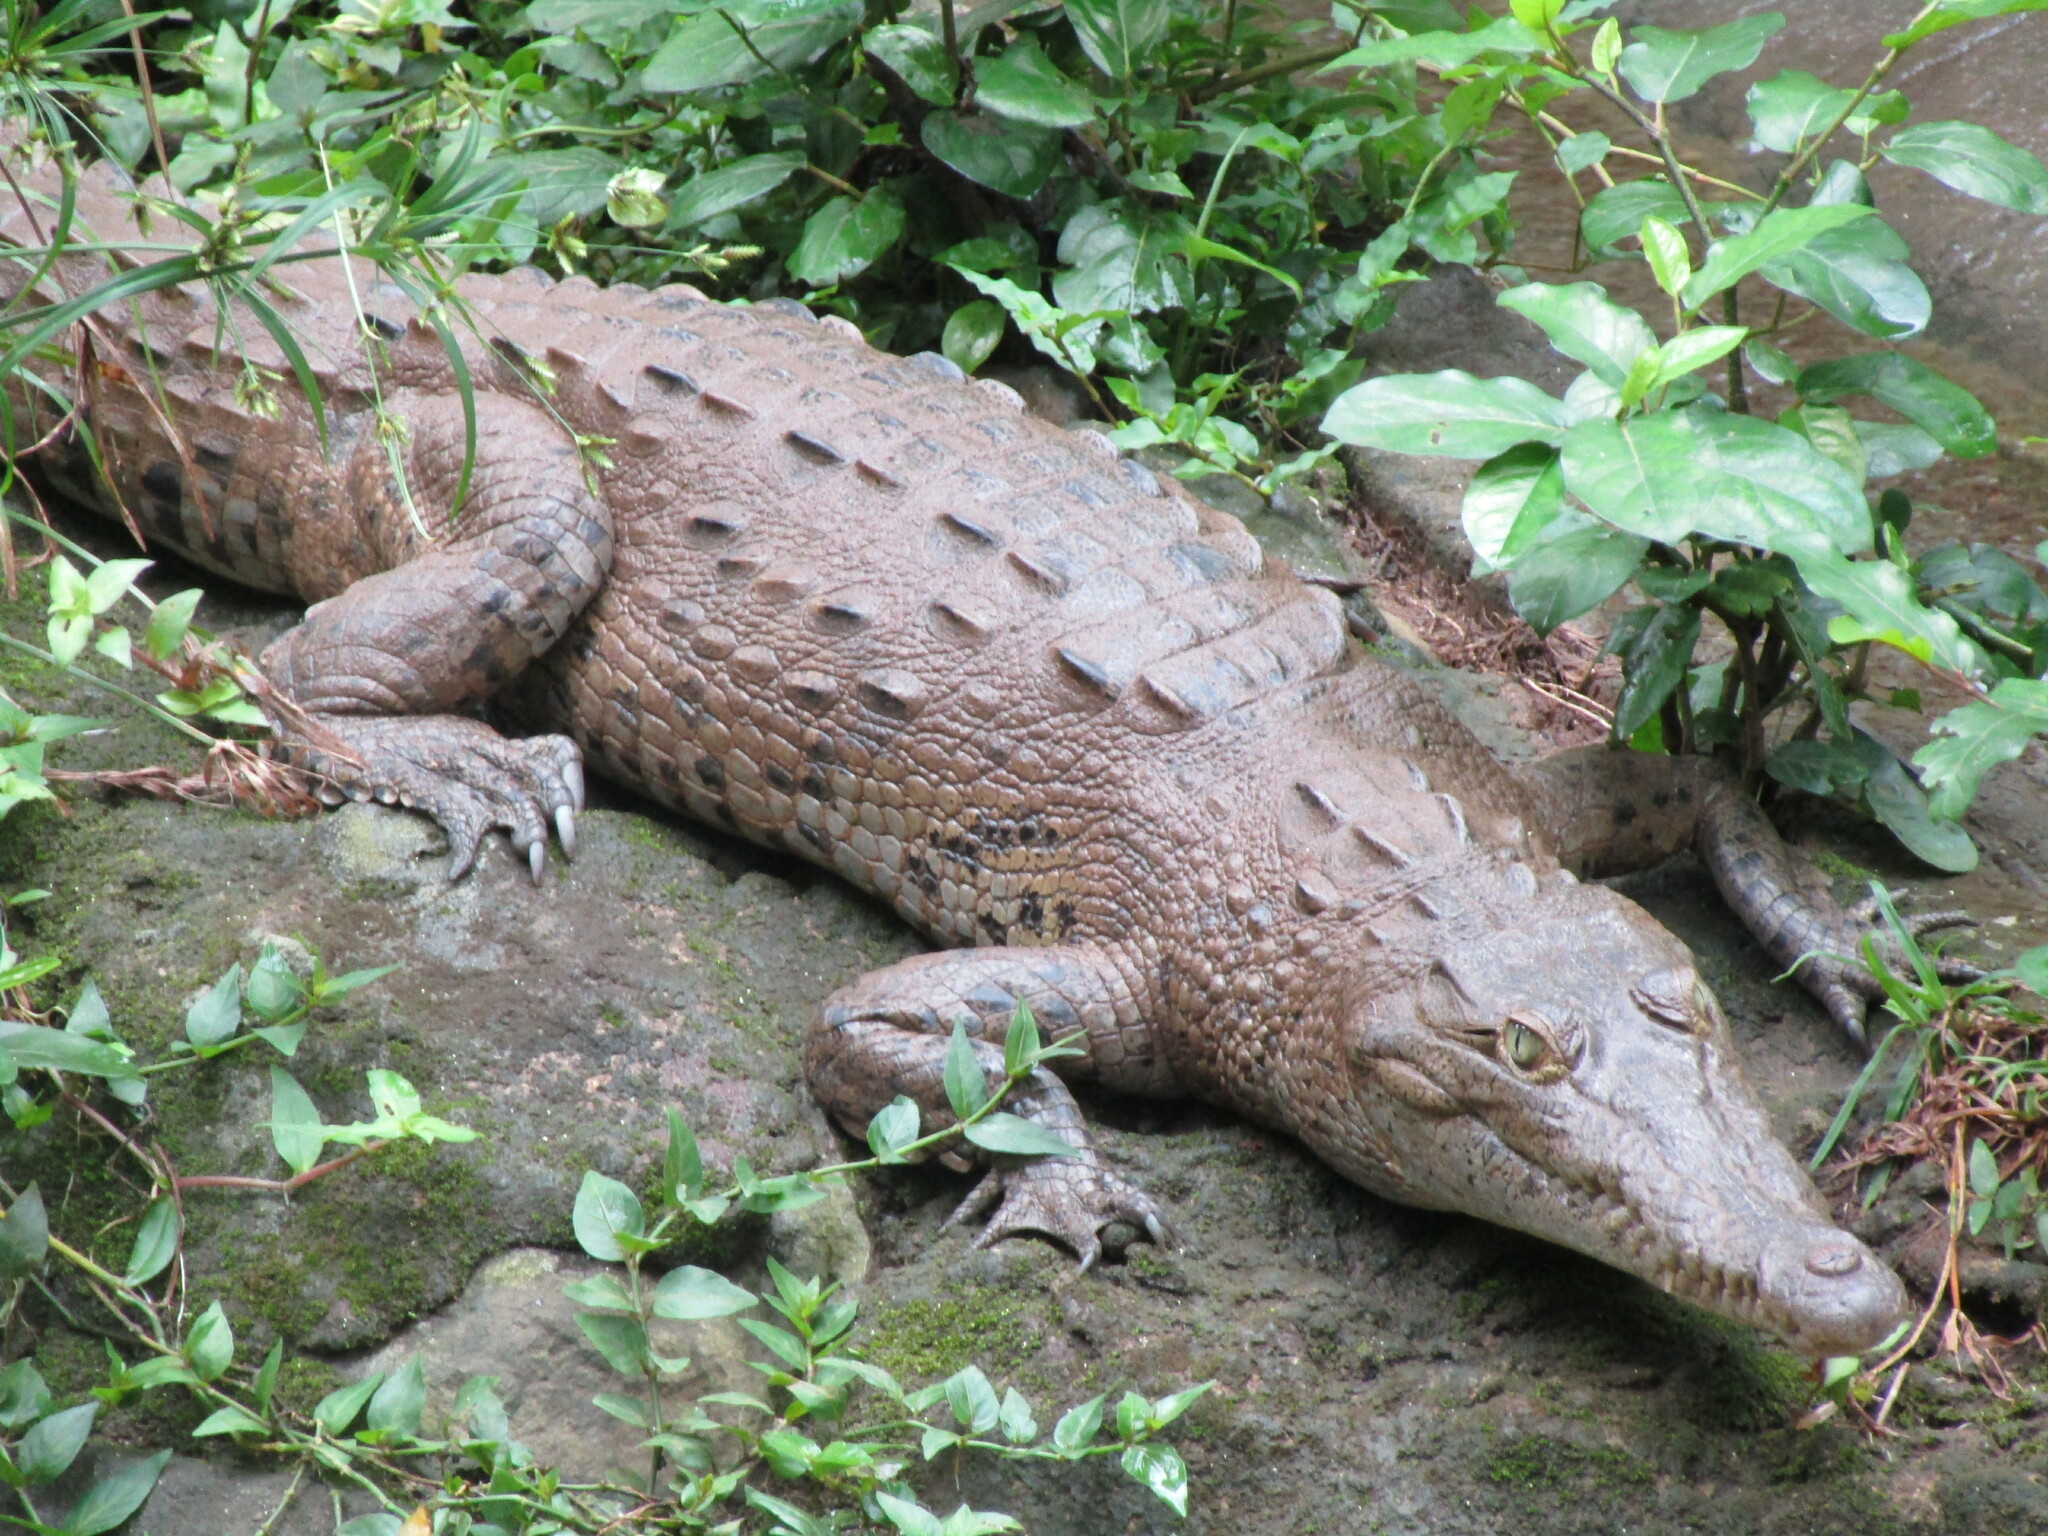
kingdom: Animalia
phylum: Chordata
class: Crocodylia
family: Crocodylidae
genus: Crocodylus
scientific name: Crocodylus acutus
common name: American crocodile
